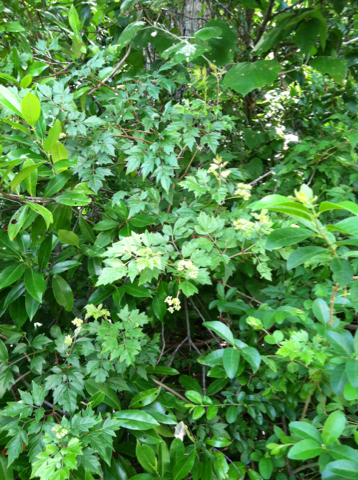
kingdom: Plantae
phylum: Tracheophyta
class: Magnoliopsida
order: Vitales
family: Vitaceae
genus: Nekemias
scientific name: Nekemias arborea
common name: Peppervine
